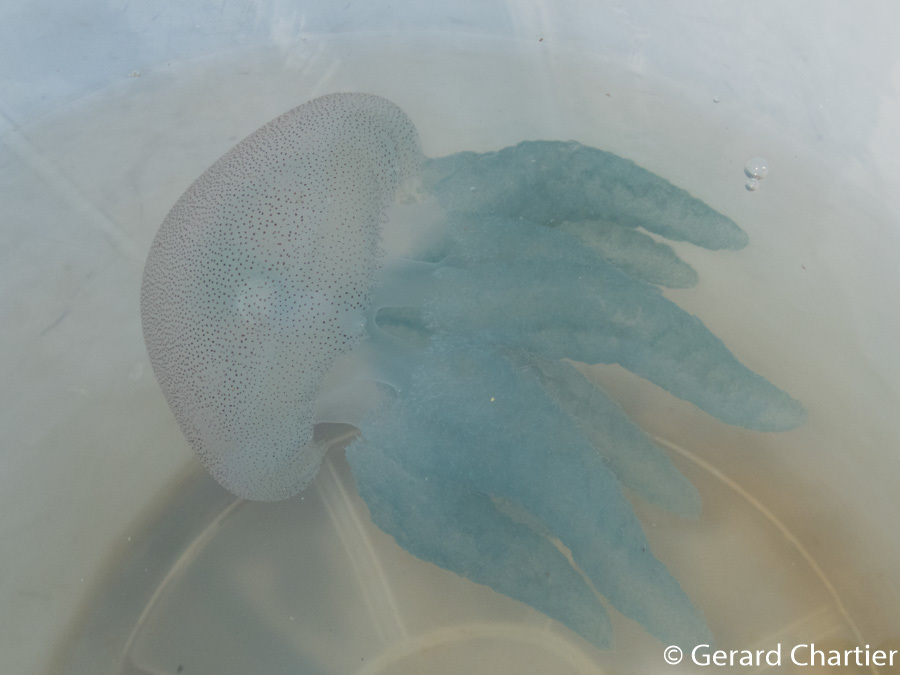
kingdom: Animalia
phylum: Cnidaria
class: Scyphozoa
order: Rhizostomeae
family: Catostylidae
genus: Acromitus
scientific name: Acromitus flagellatus
